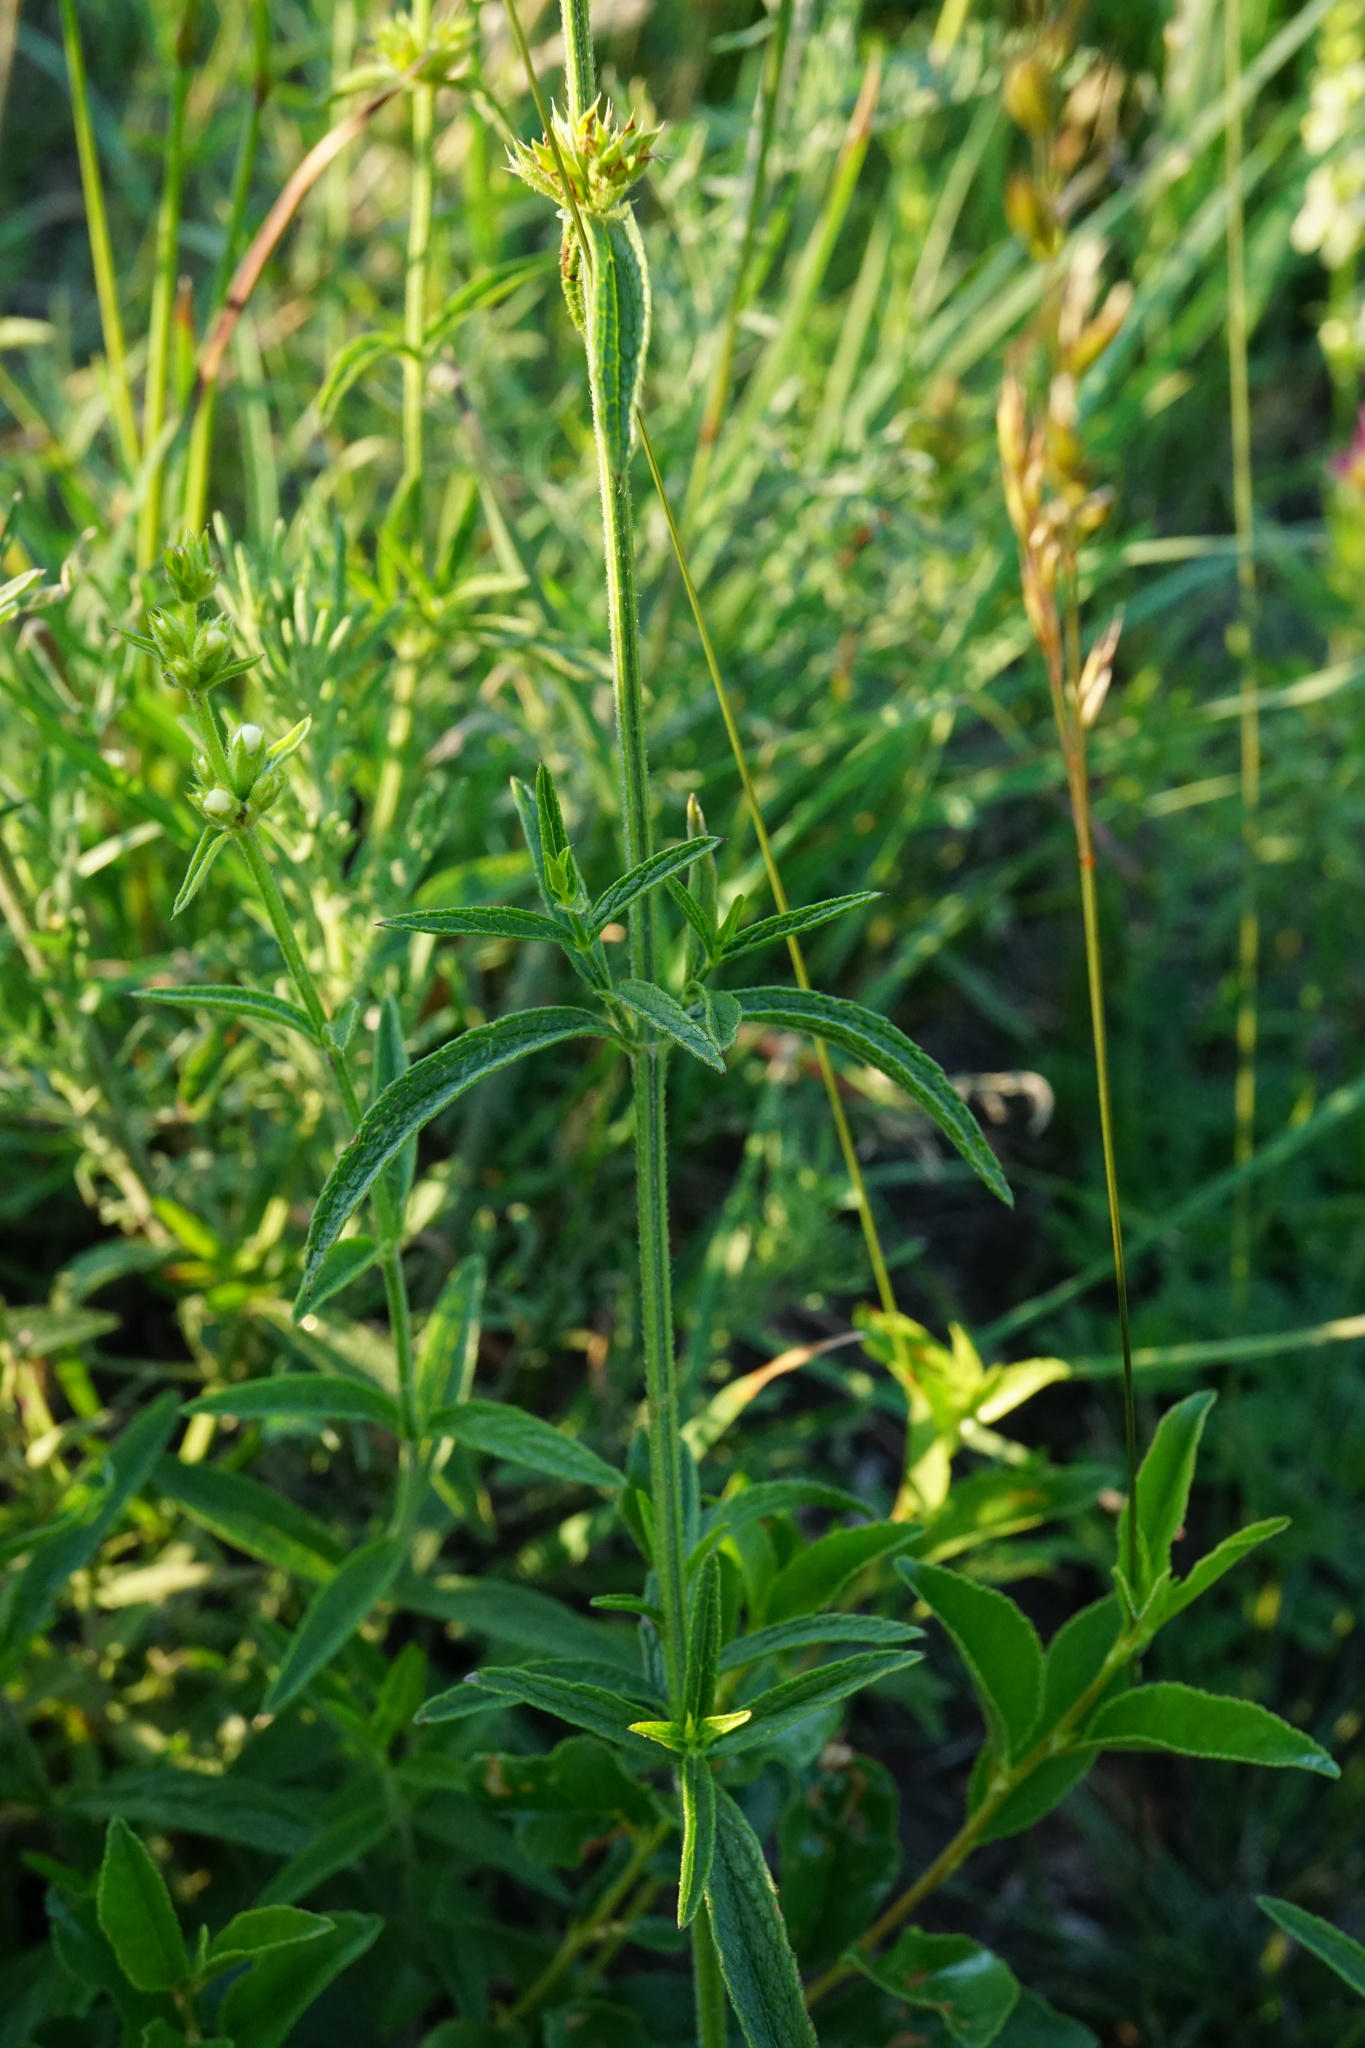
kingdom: Plantae
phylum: Tracheophyta
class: Magnoliopsida
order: Lamiales
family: Lamiaceae
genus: Stachys
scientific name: Stachys recta
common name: Perennial yellow-woundwort
